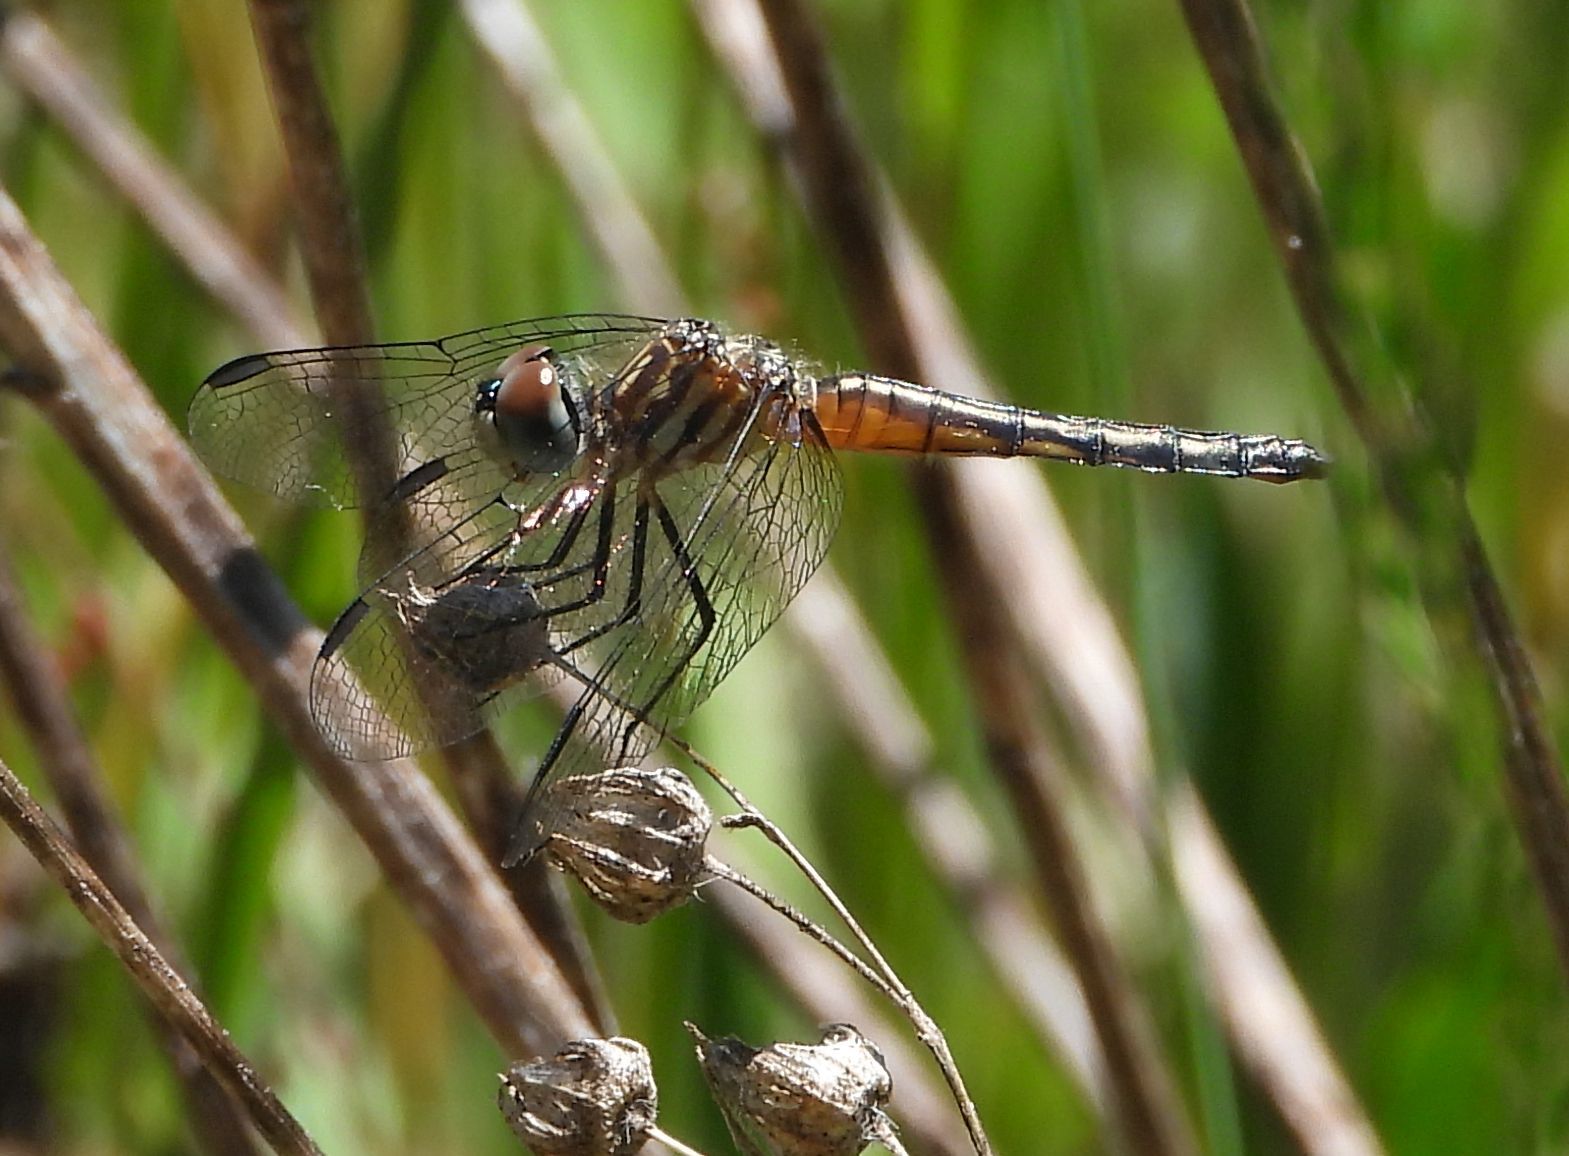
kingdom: Animalia
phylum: Arthropoda
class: Insecta
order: Odonata
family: Libellulidae
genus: Pachydiplax
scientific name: Pachydiplax longipennis
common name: Blue dasher
